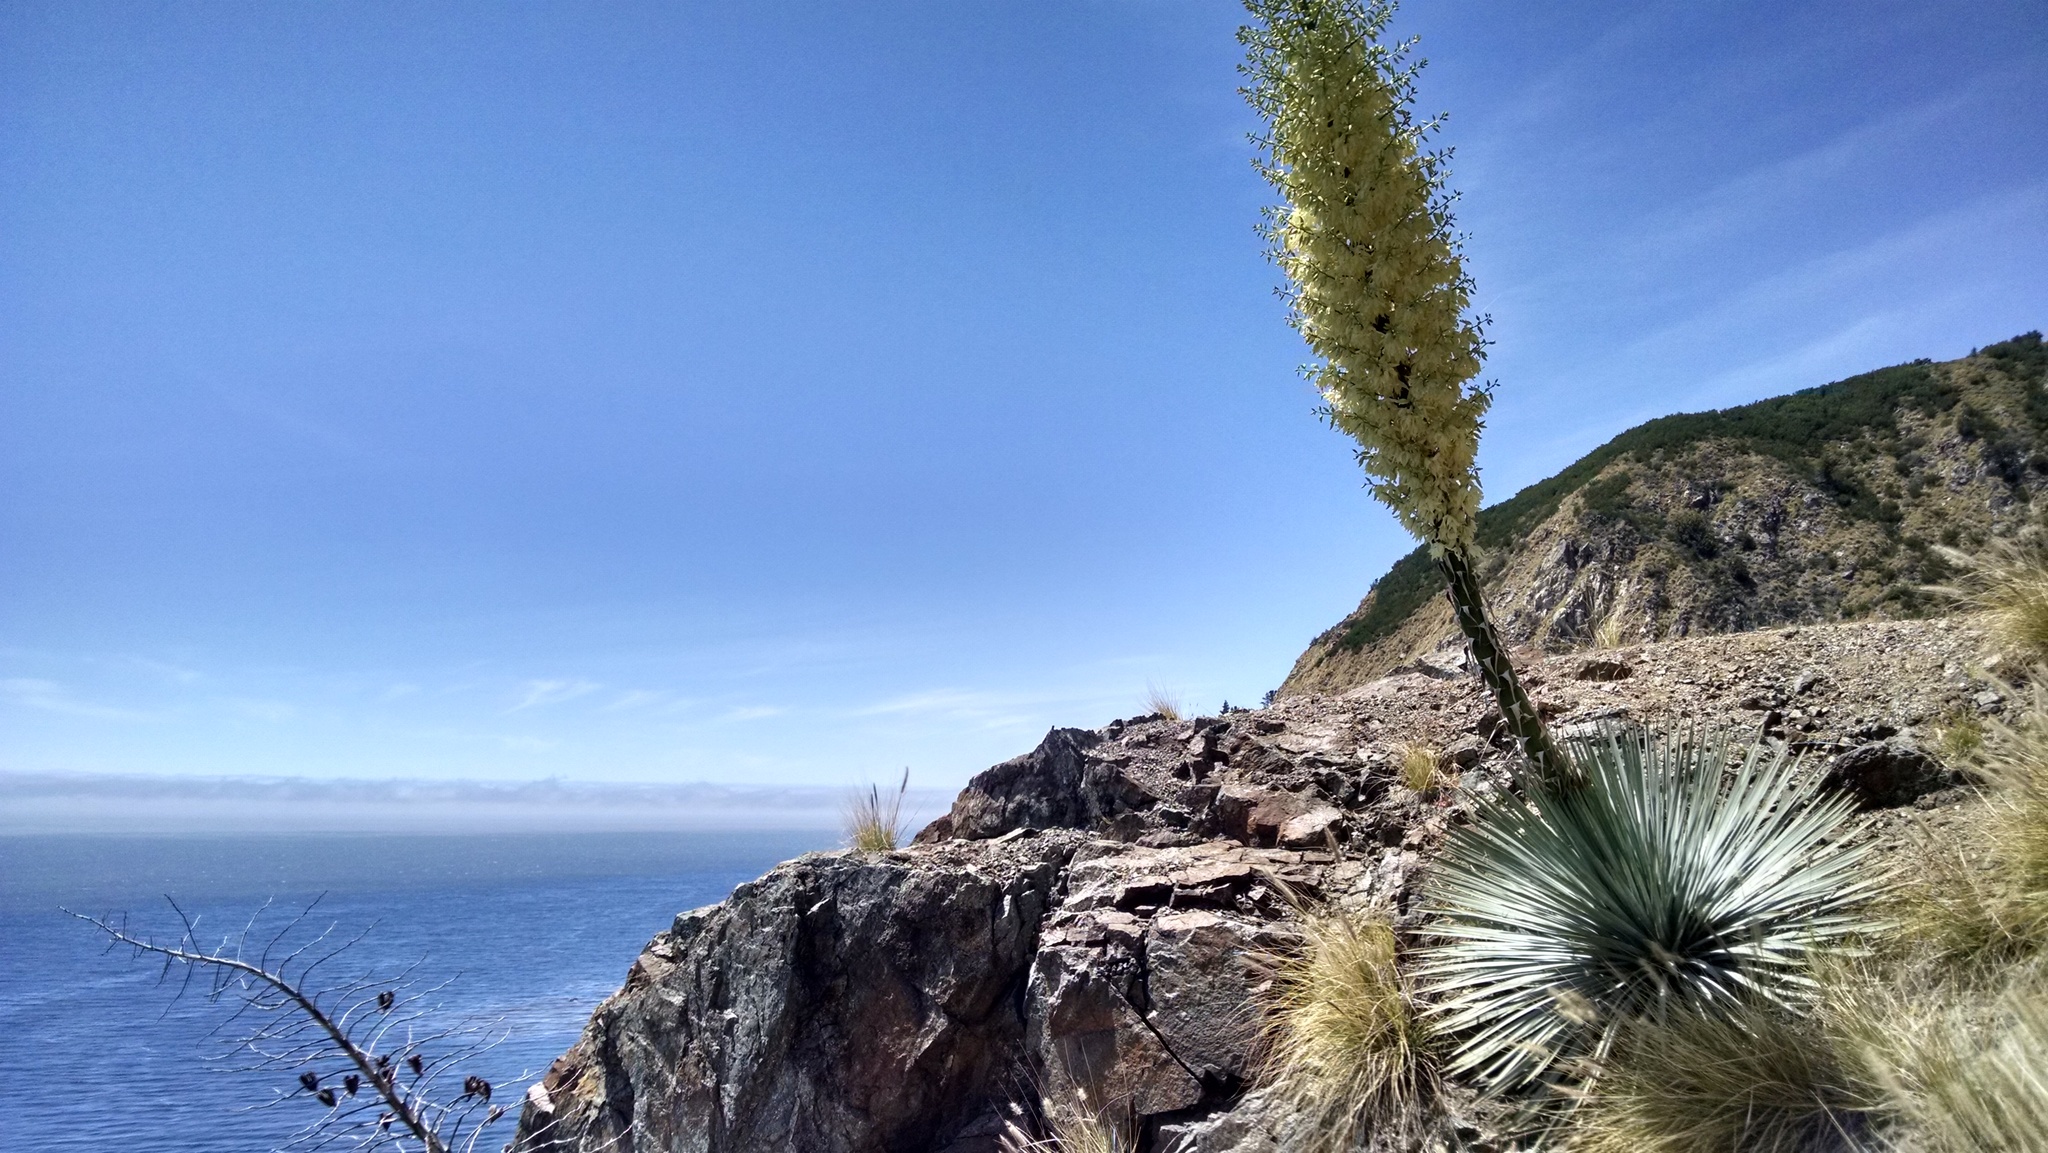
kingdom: Plantae
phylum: Tracheophyta
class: Liliopsida
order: Asparagales
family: Asparagaceae
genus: Hesperoyucca
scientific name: Hesperoyucca whipplei
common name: Our lord's-candle
